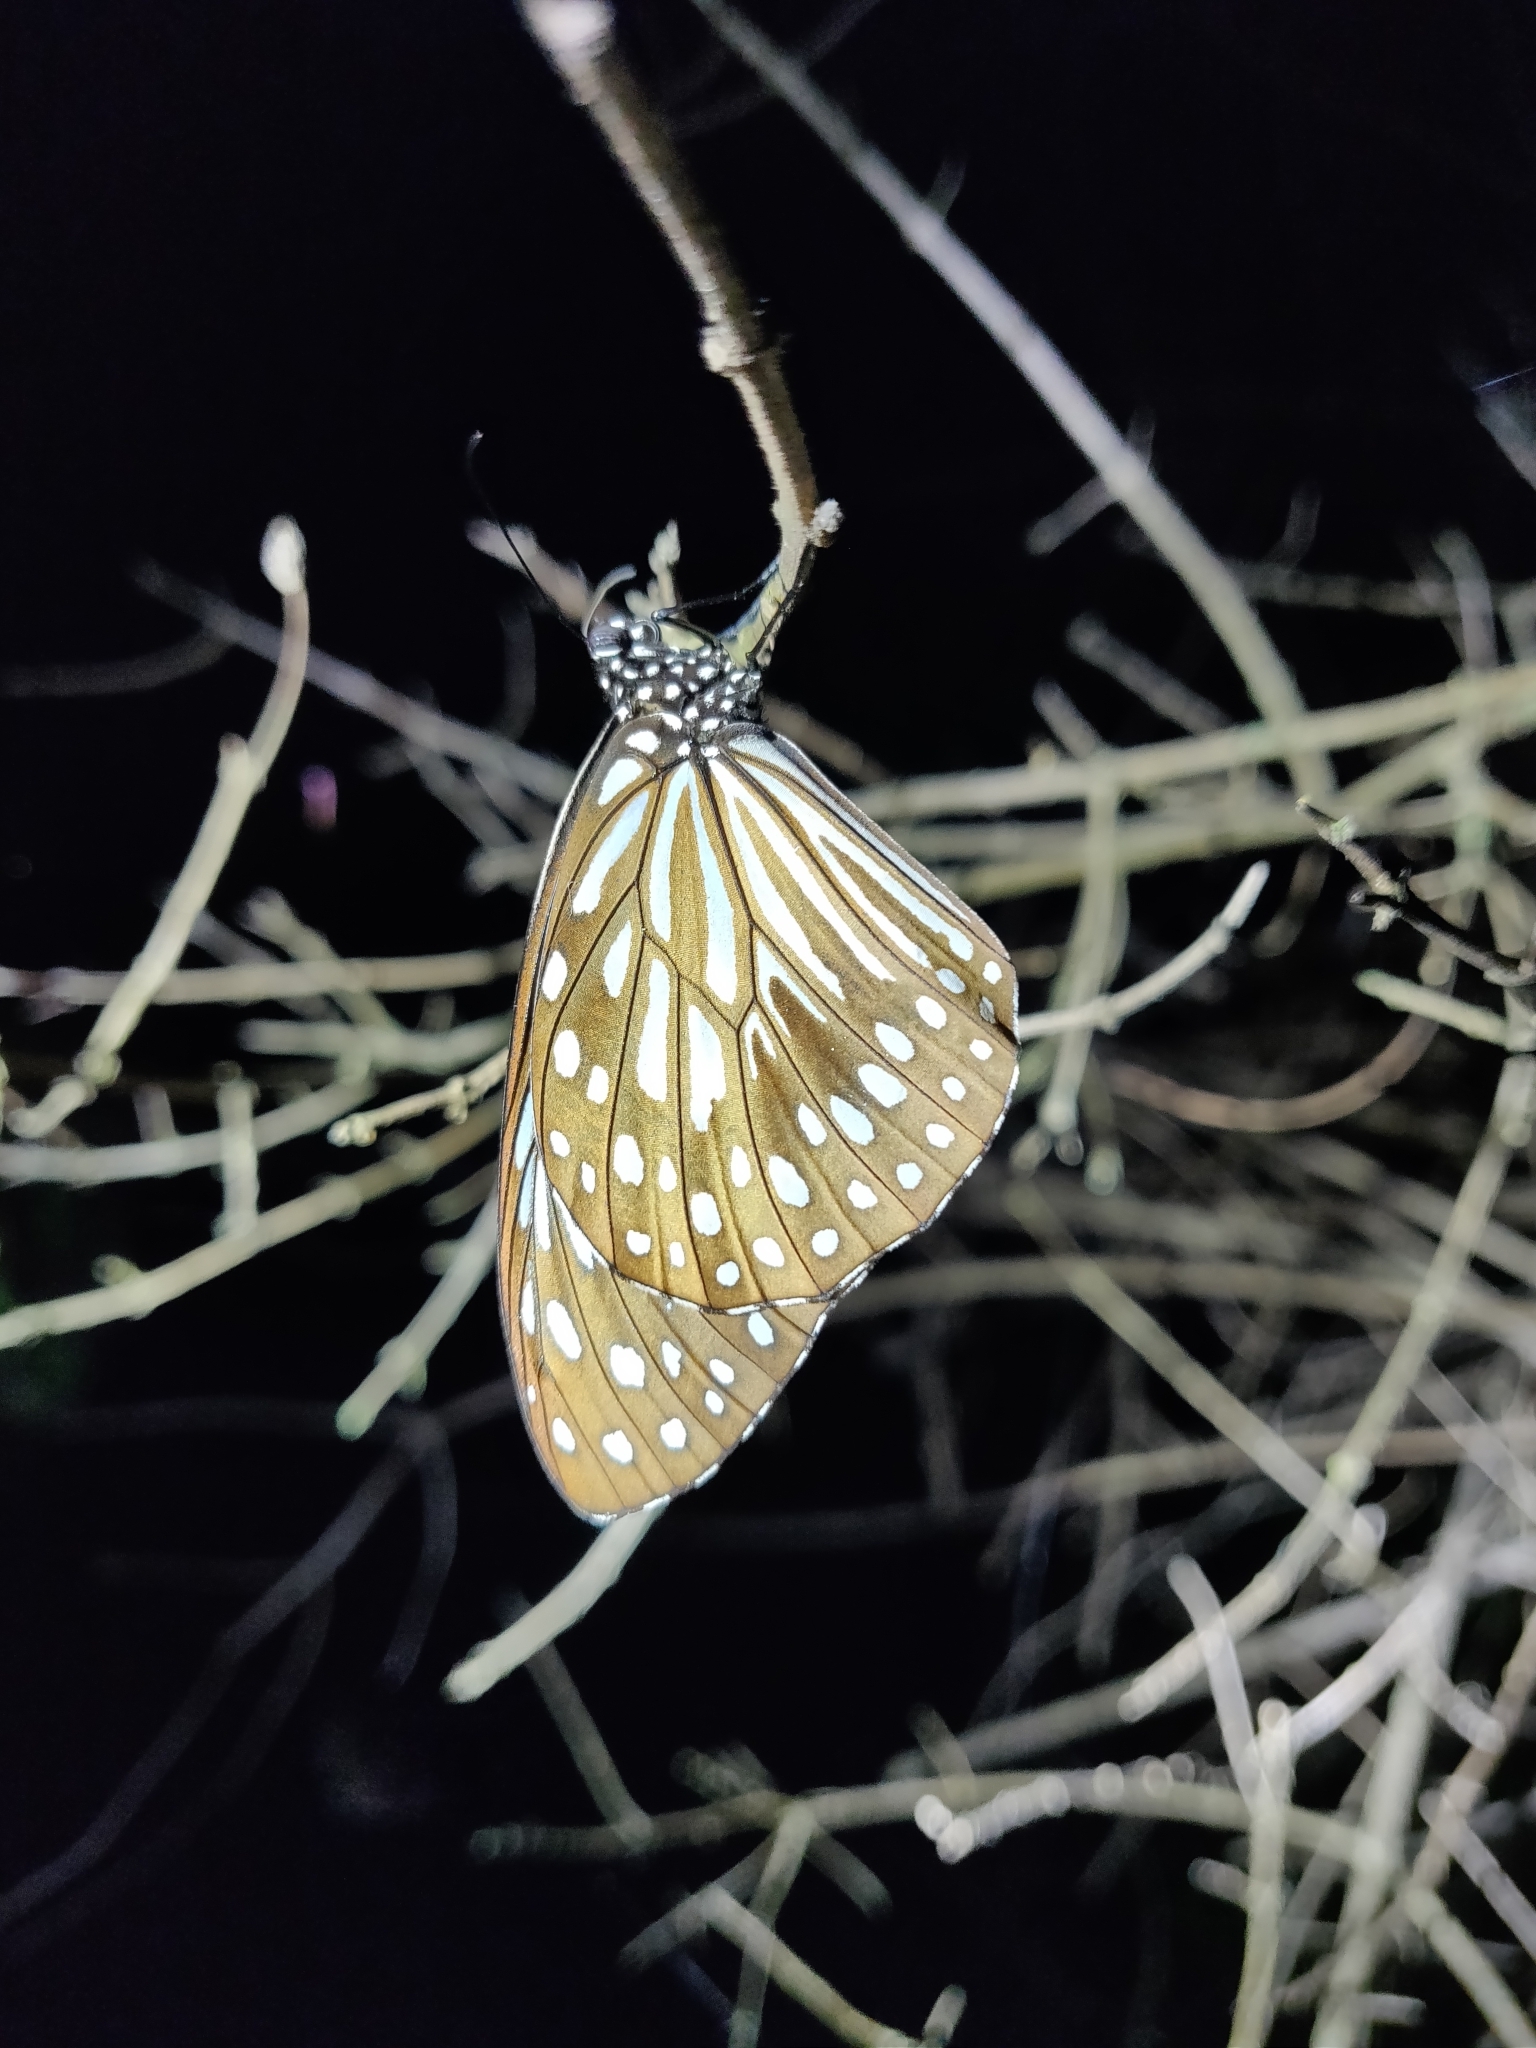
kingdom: Animalia
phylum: Arthropoda
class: Insecta
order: Lepidoptera
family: Nymphalidae
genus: Tirumala
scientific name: Tirumala septentrionis
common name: Dark blue tiger butterfly
